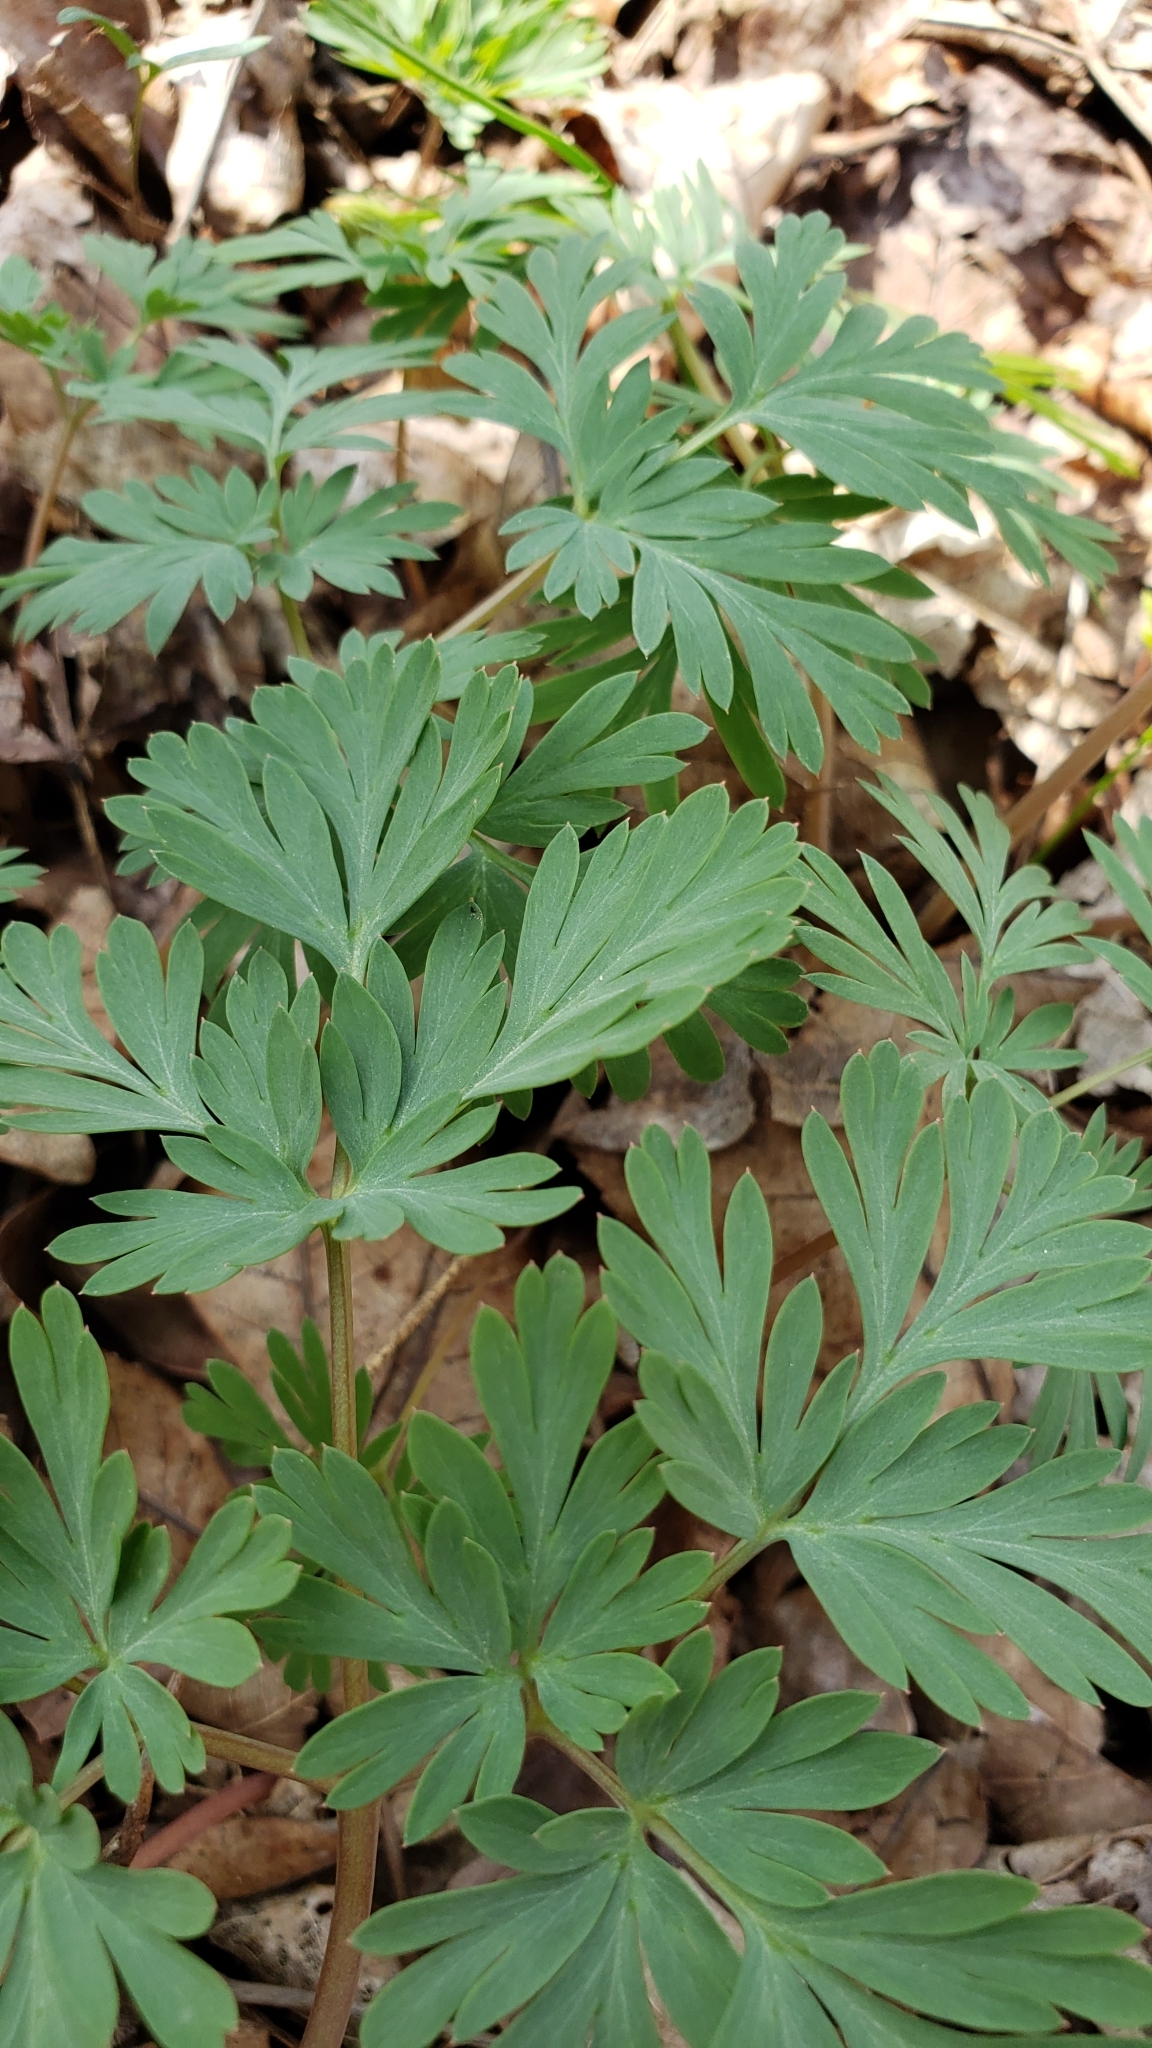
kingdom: Plantae
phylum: Tracheophyta
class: Magnoliopsida
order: Ranunculales
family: Papaveraceae
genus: Dicentra
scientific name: Dicentra cucullaria
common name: Dutchman's breeches
